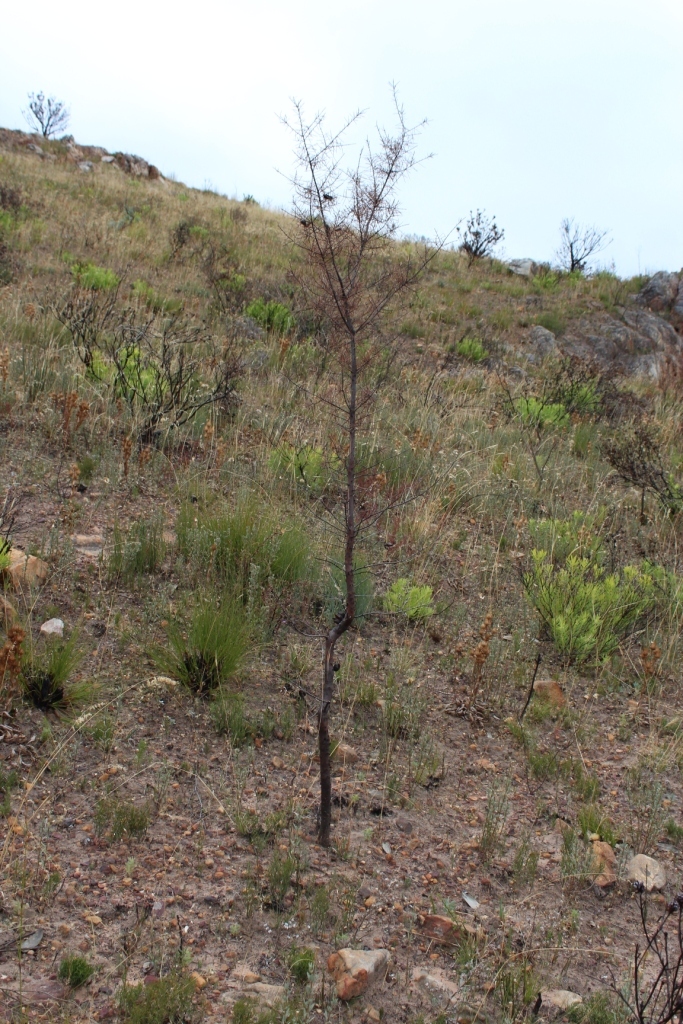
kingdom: Plantae
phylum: Tracheophyta
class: Magnoliopsida
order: Proteales
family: Proteaceae
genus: Hakea
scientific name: Hakea sericea
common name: Needle bush
